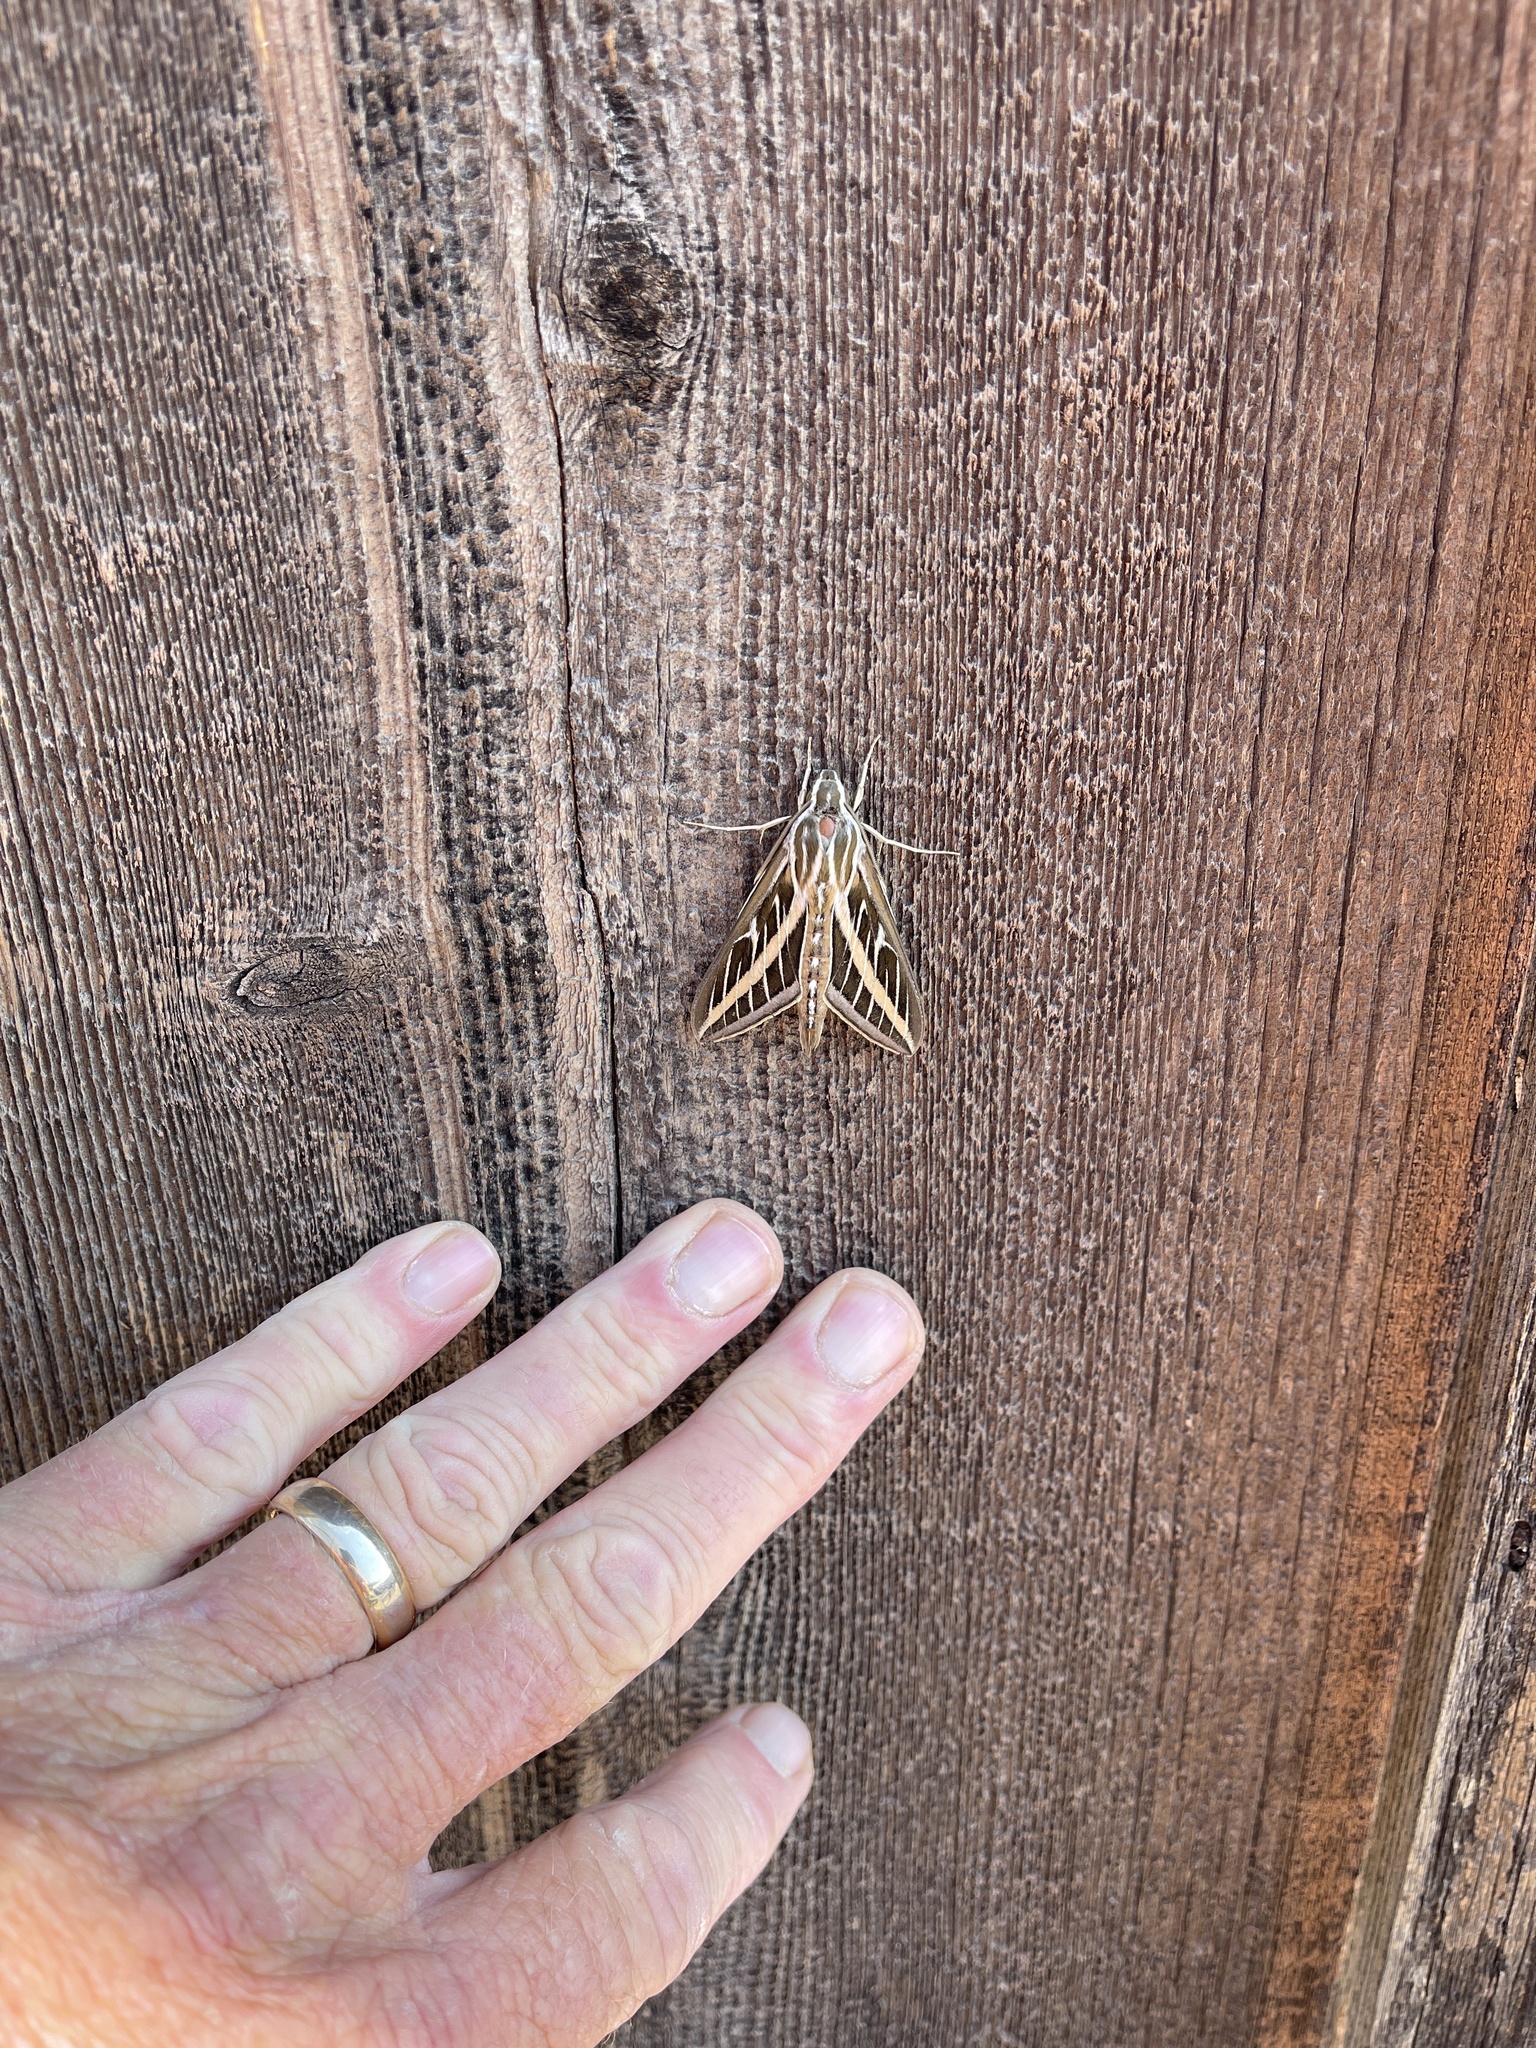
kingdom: Animalia
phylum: Arthropoda
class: Insecta
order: Lepidoptera
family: Sphingidae
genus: Hyles
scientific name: Hyles lineata
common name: White-lined sphinx
